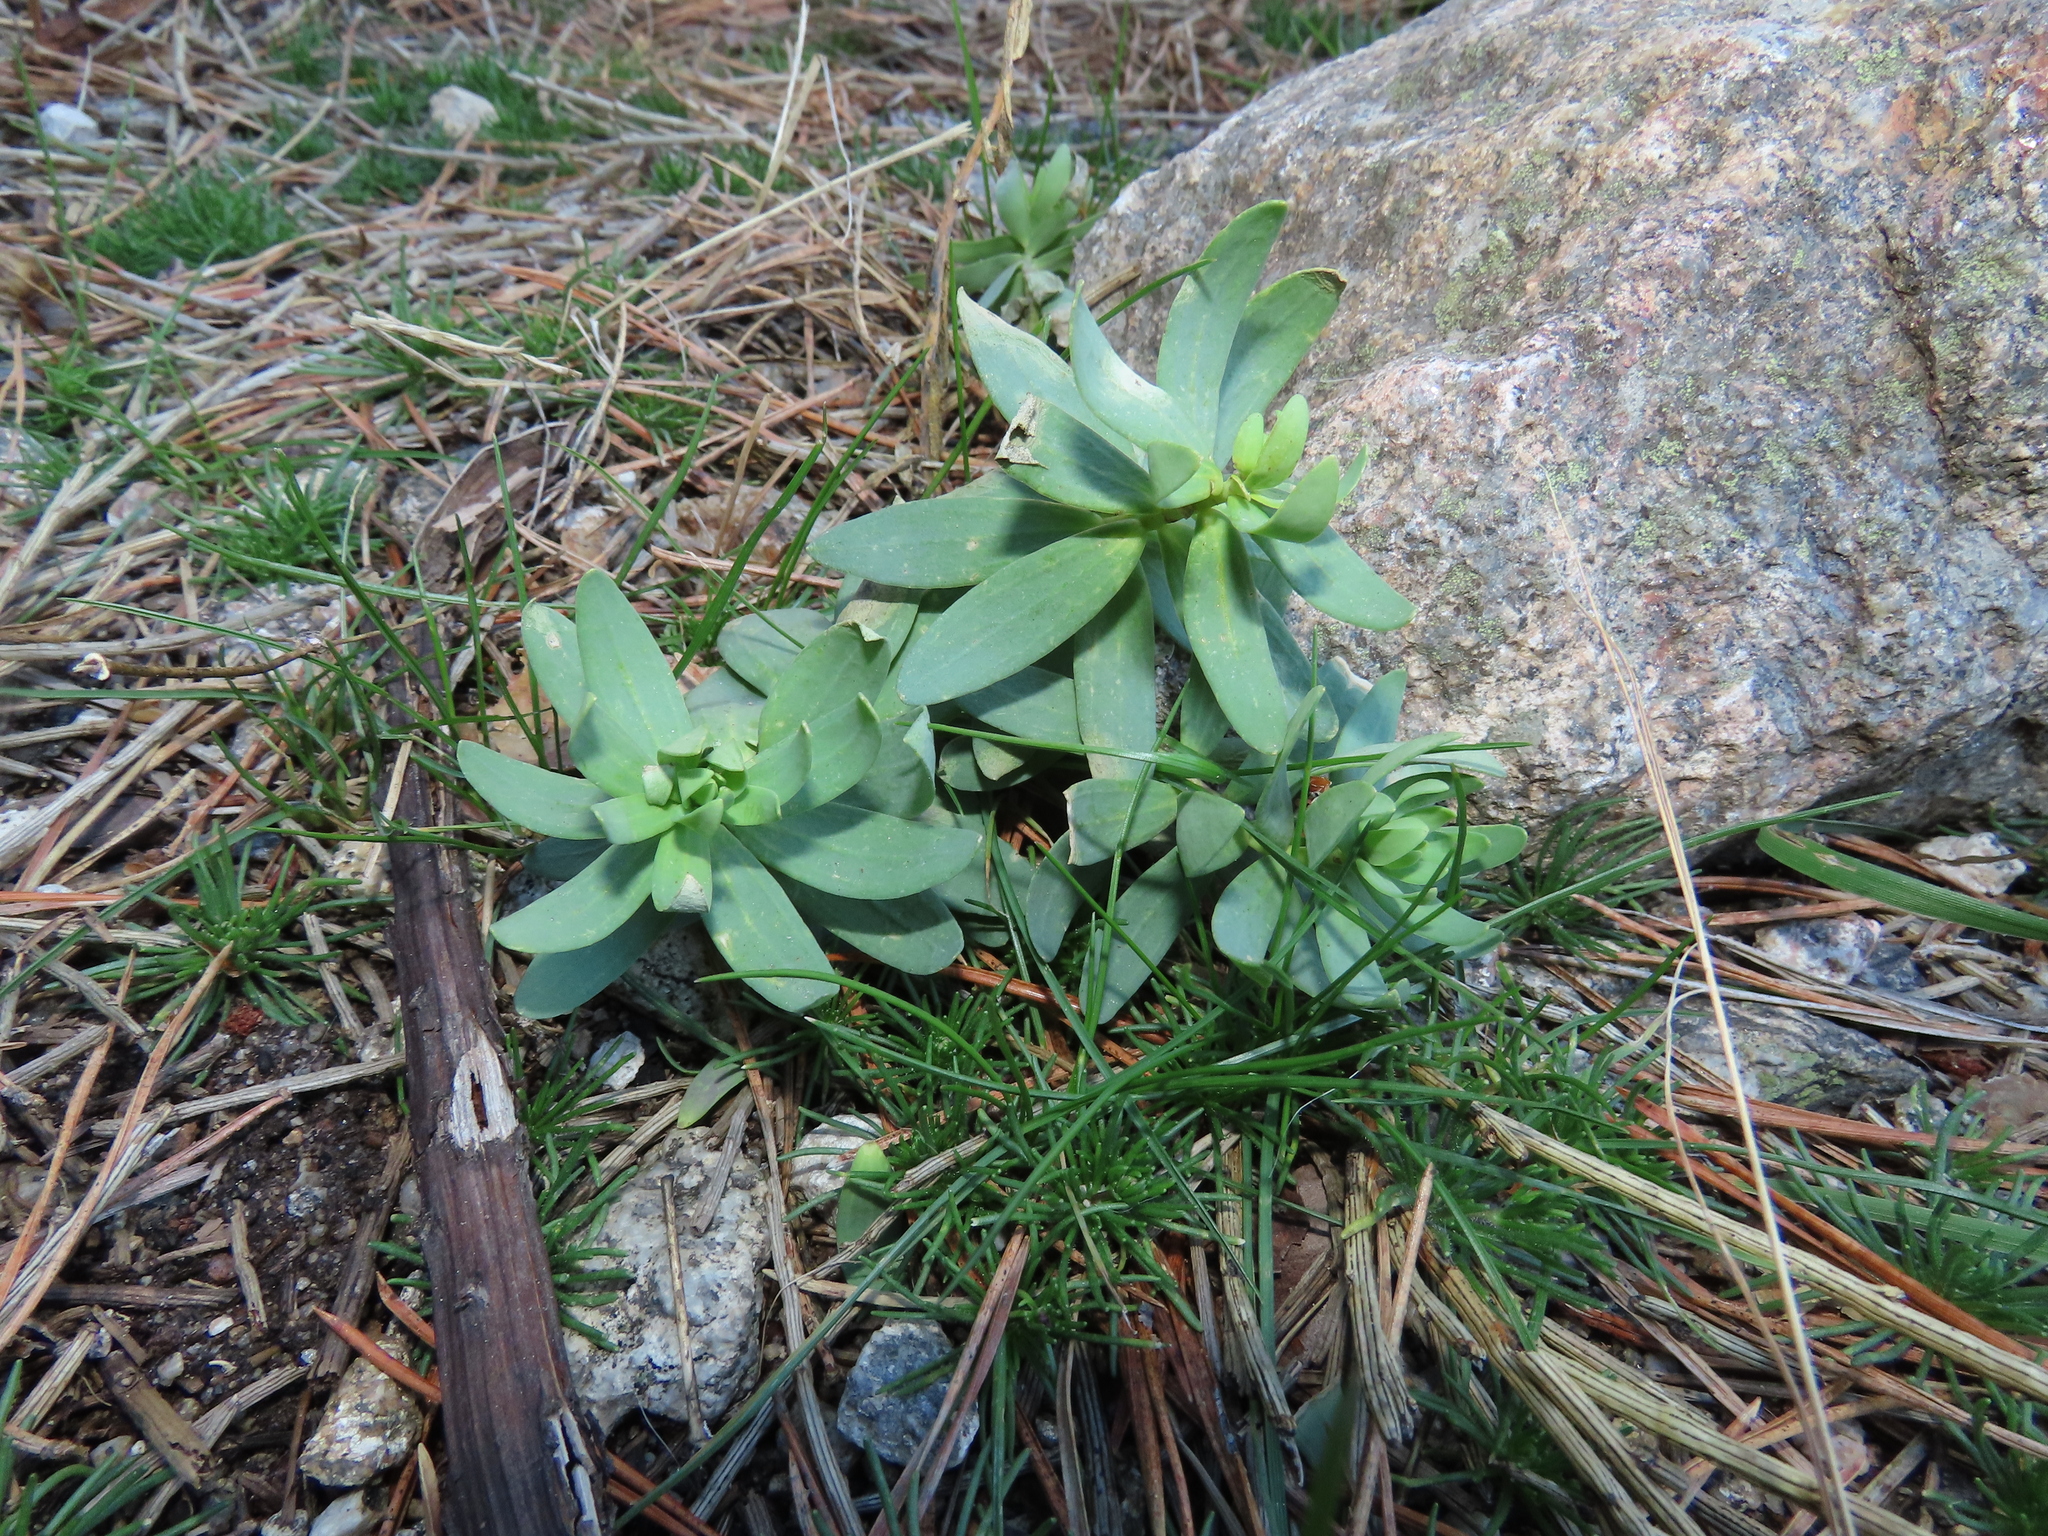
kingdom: Plantae
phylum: Tracheophyta
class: Magnoliopsida
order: Lamiales
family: Plantaginaceae
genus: Linaria
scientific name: Linaria nivea
